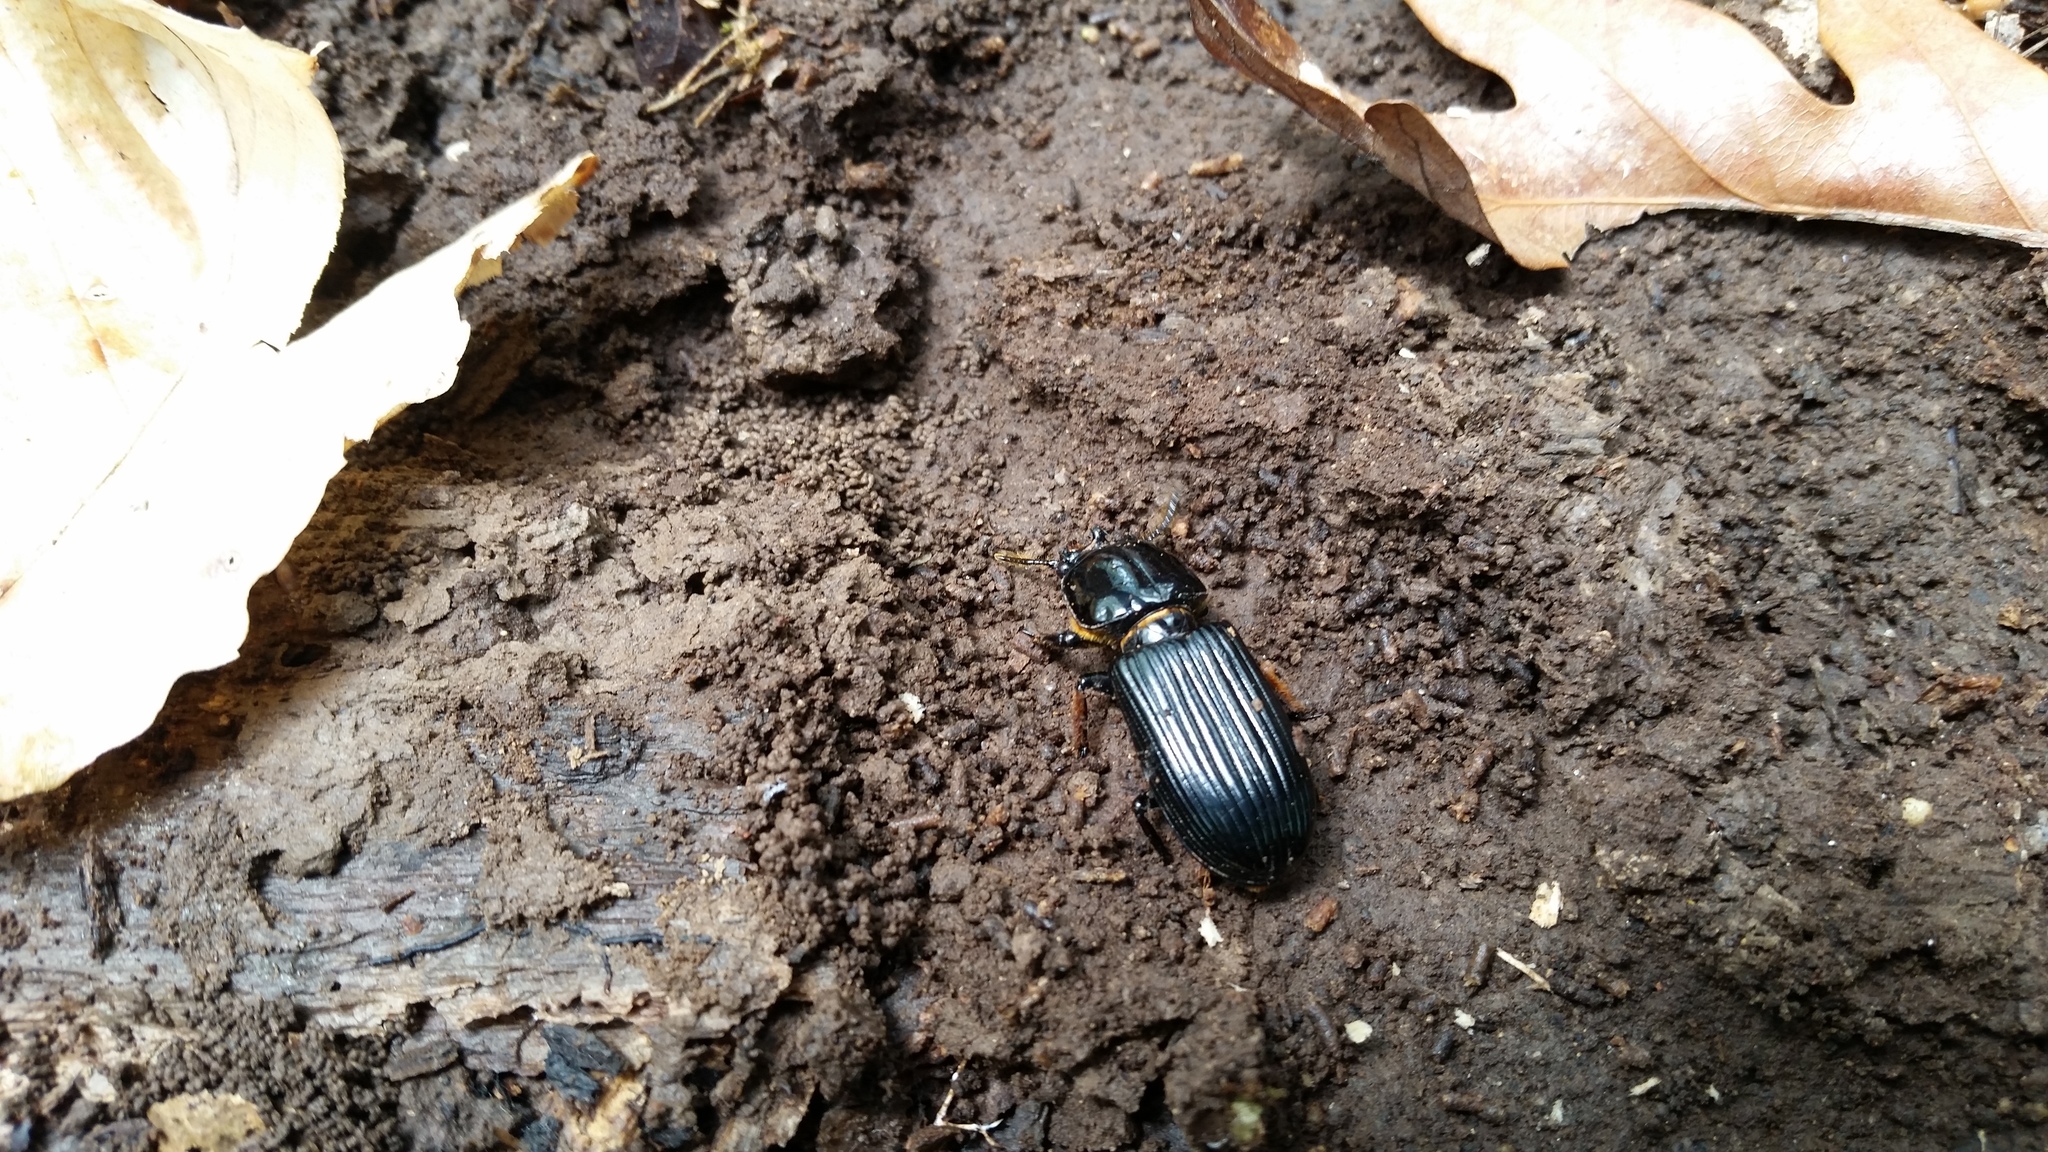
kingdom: Animalia
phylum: Arthropoda
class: Insecta
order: Coleoptera
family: Passalidae
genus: Odontotaenius
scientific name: Odontotaenius disjunctus
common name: Patent leather beetle
